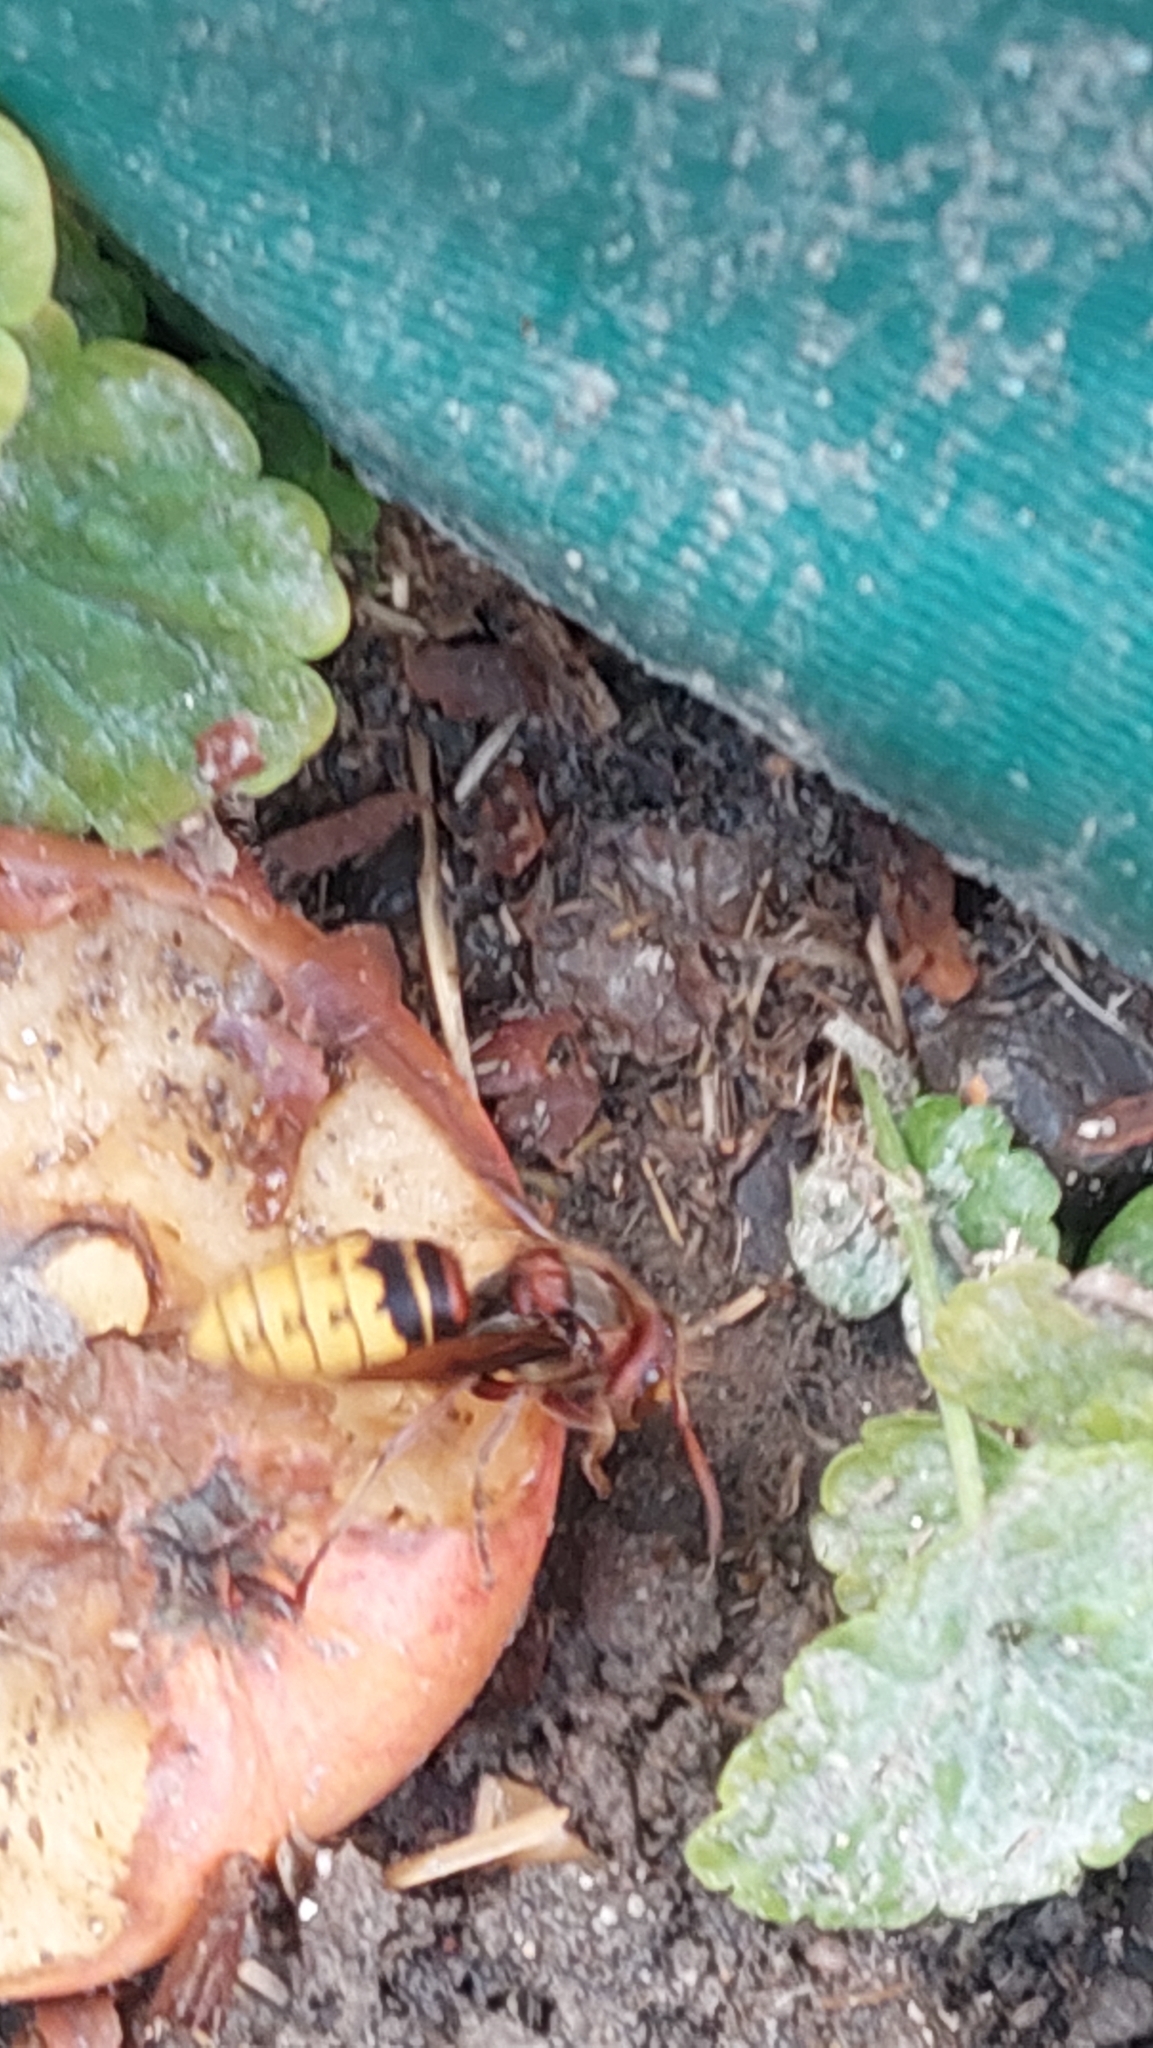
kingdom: Animalia
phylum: Arthropoda
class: Insecta
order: Hymenoptera
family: Vespidae
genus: Vespa
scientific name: Vespa crabro
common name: Hornet
